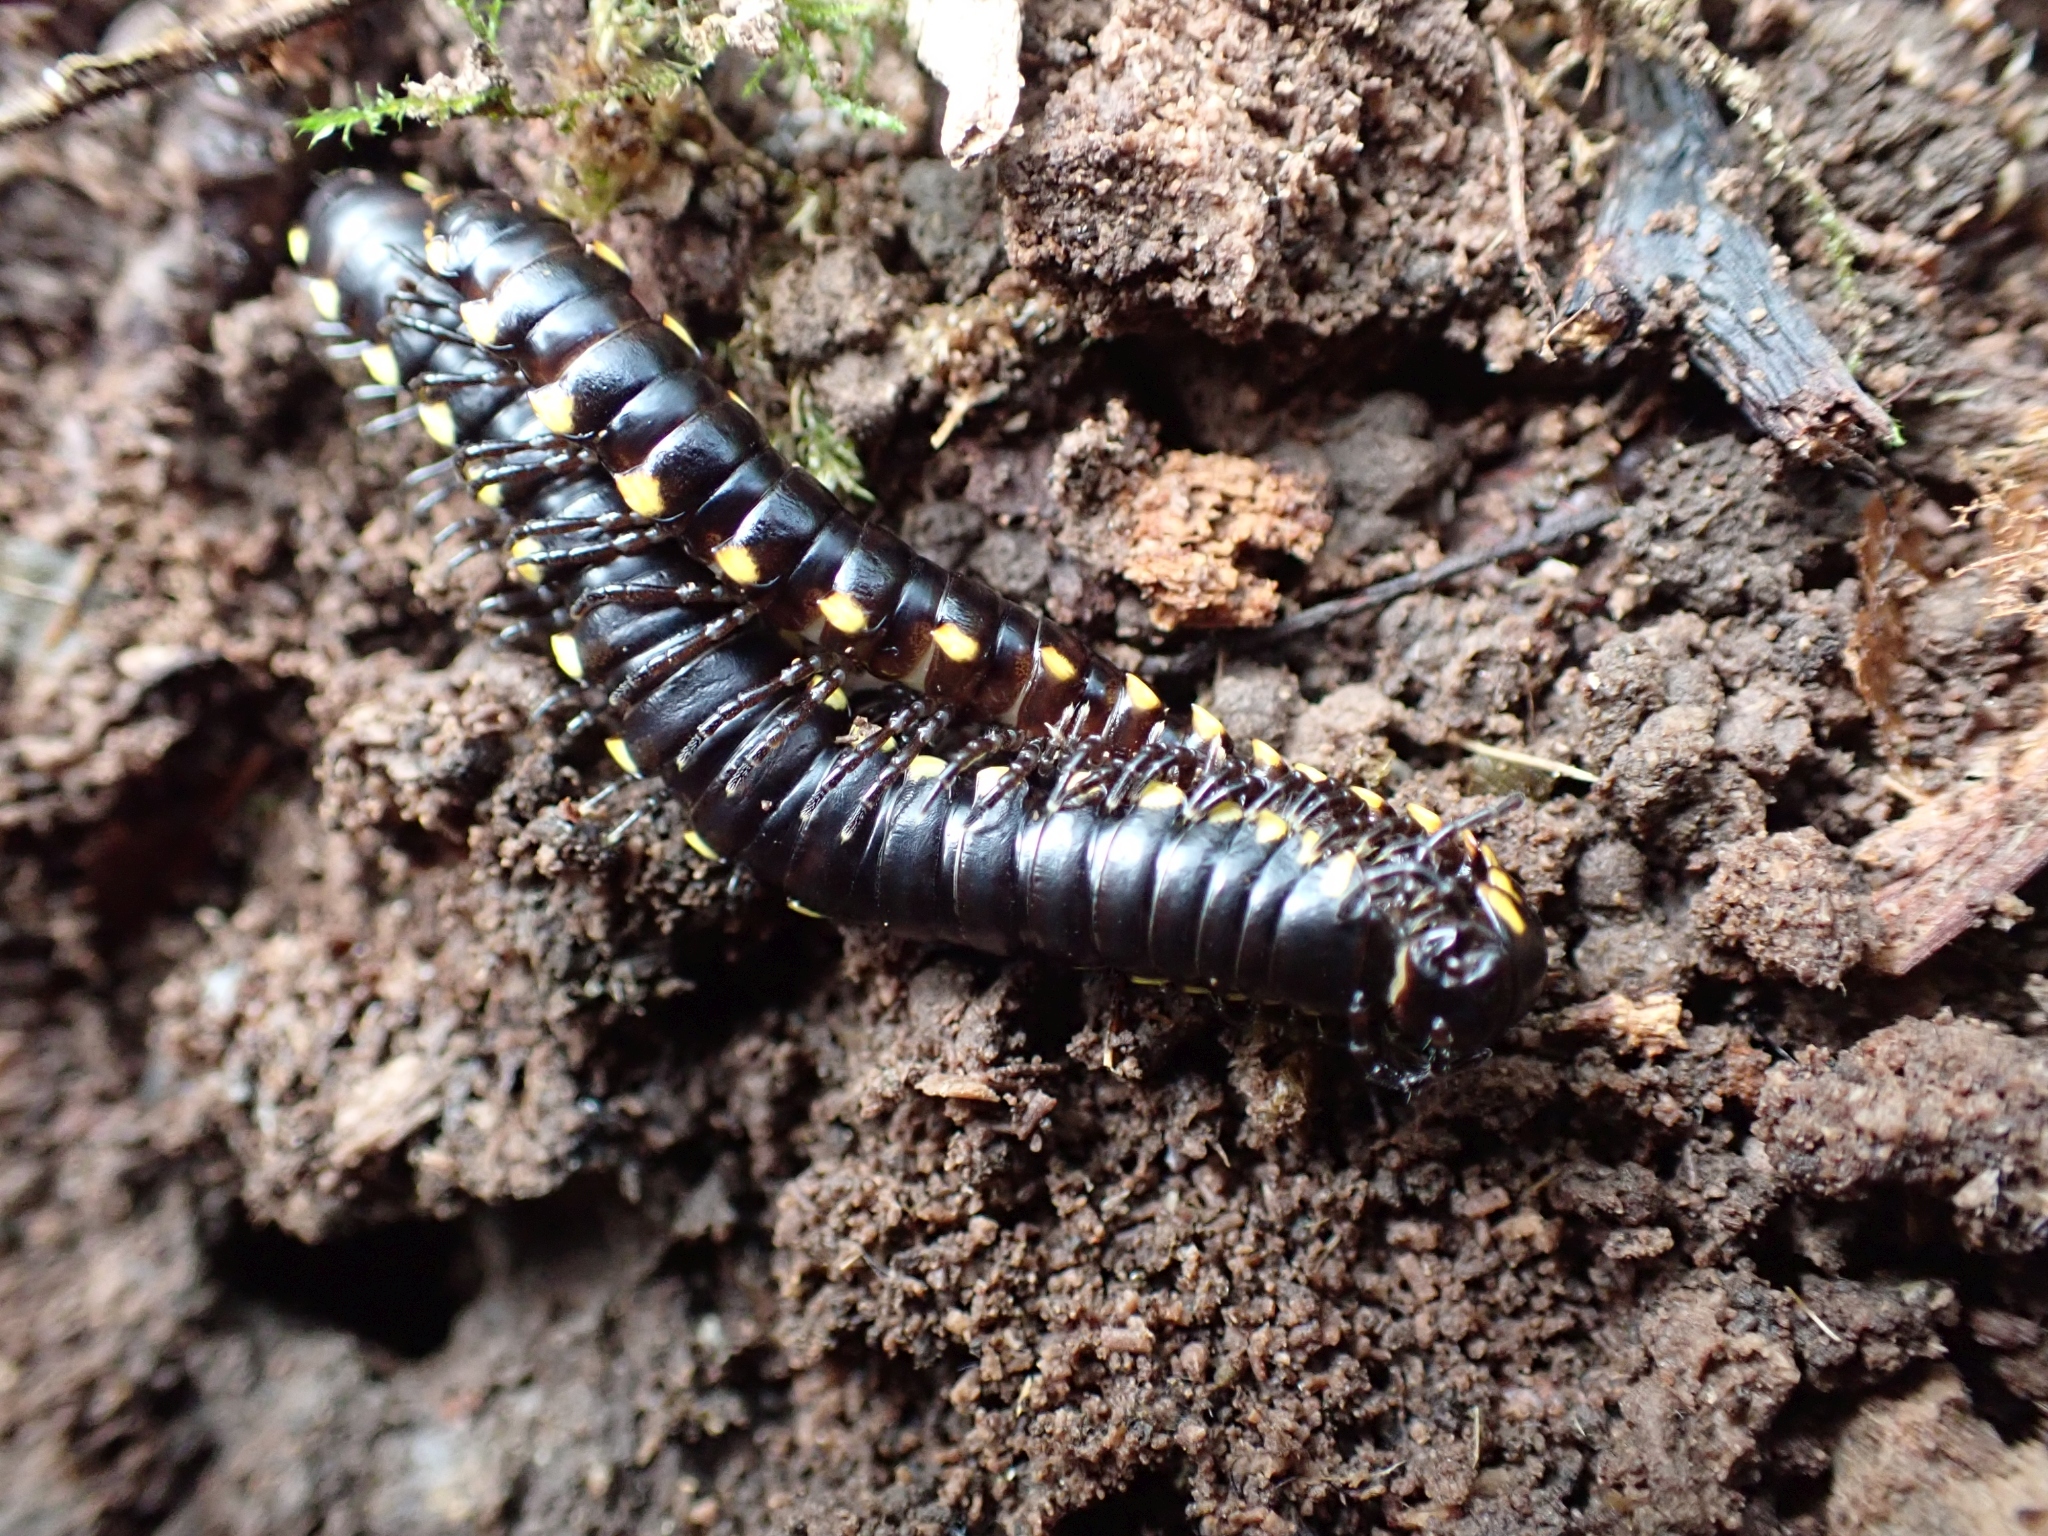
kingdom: Animalia
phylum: Arthropoda
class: Diplopoda
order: Polydesmida
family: Xystodesmidae
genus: Harpaphe
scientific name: Harpaphe haydeniana
